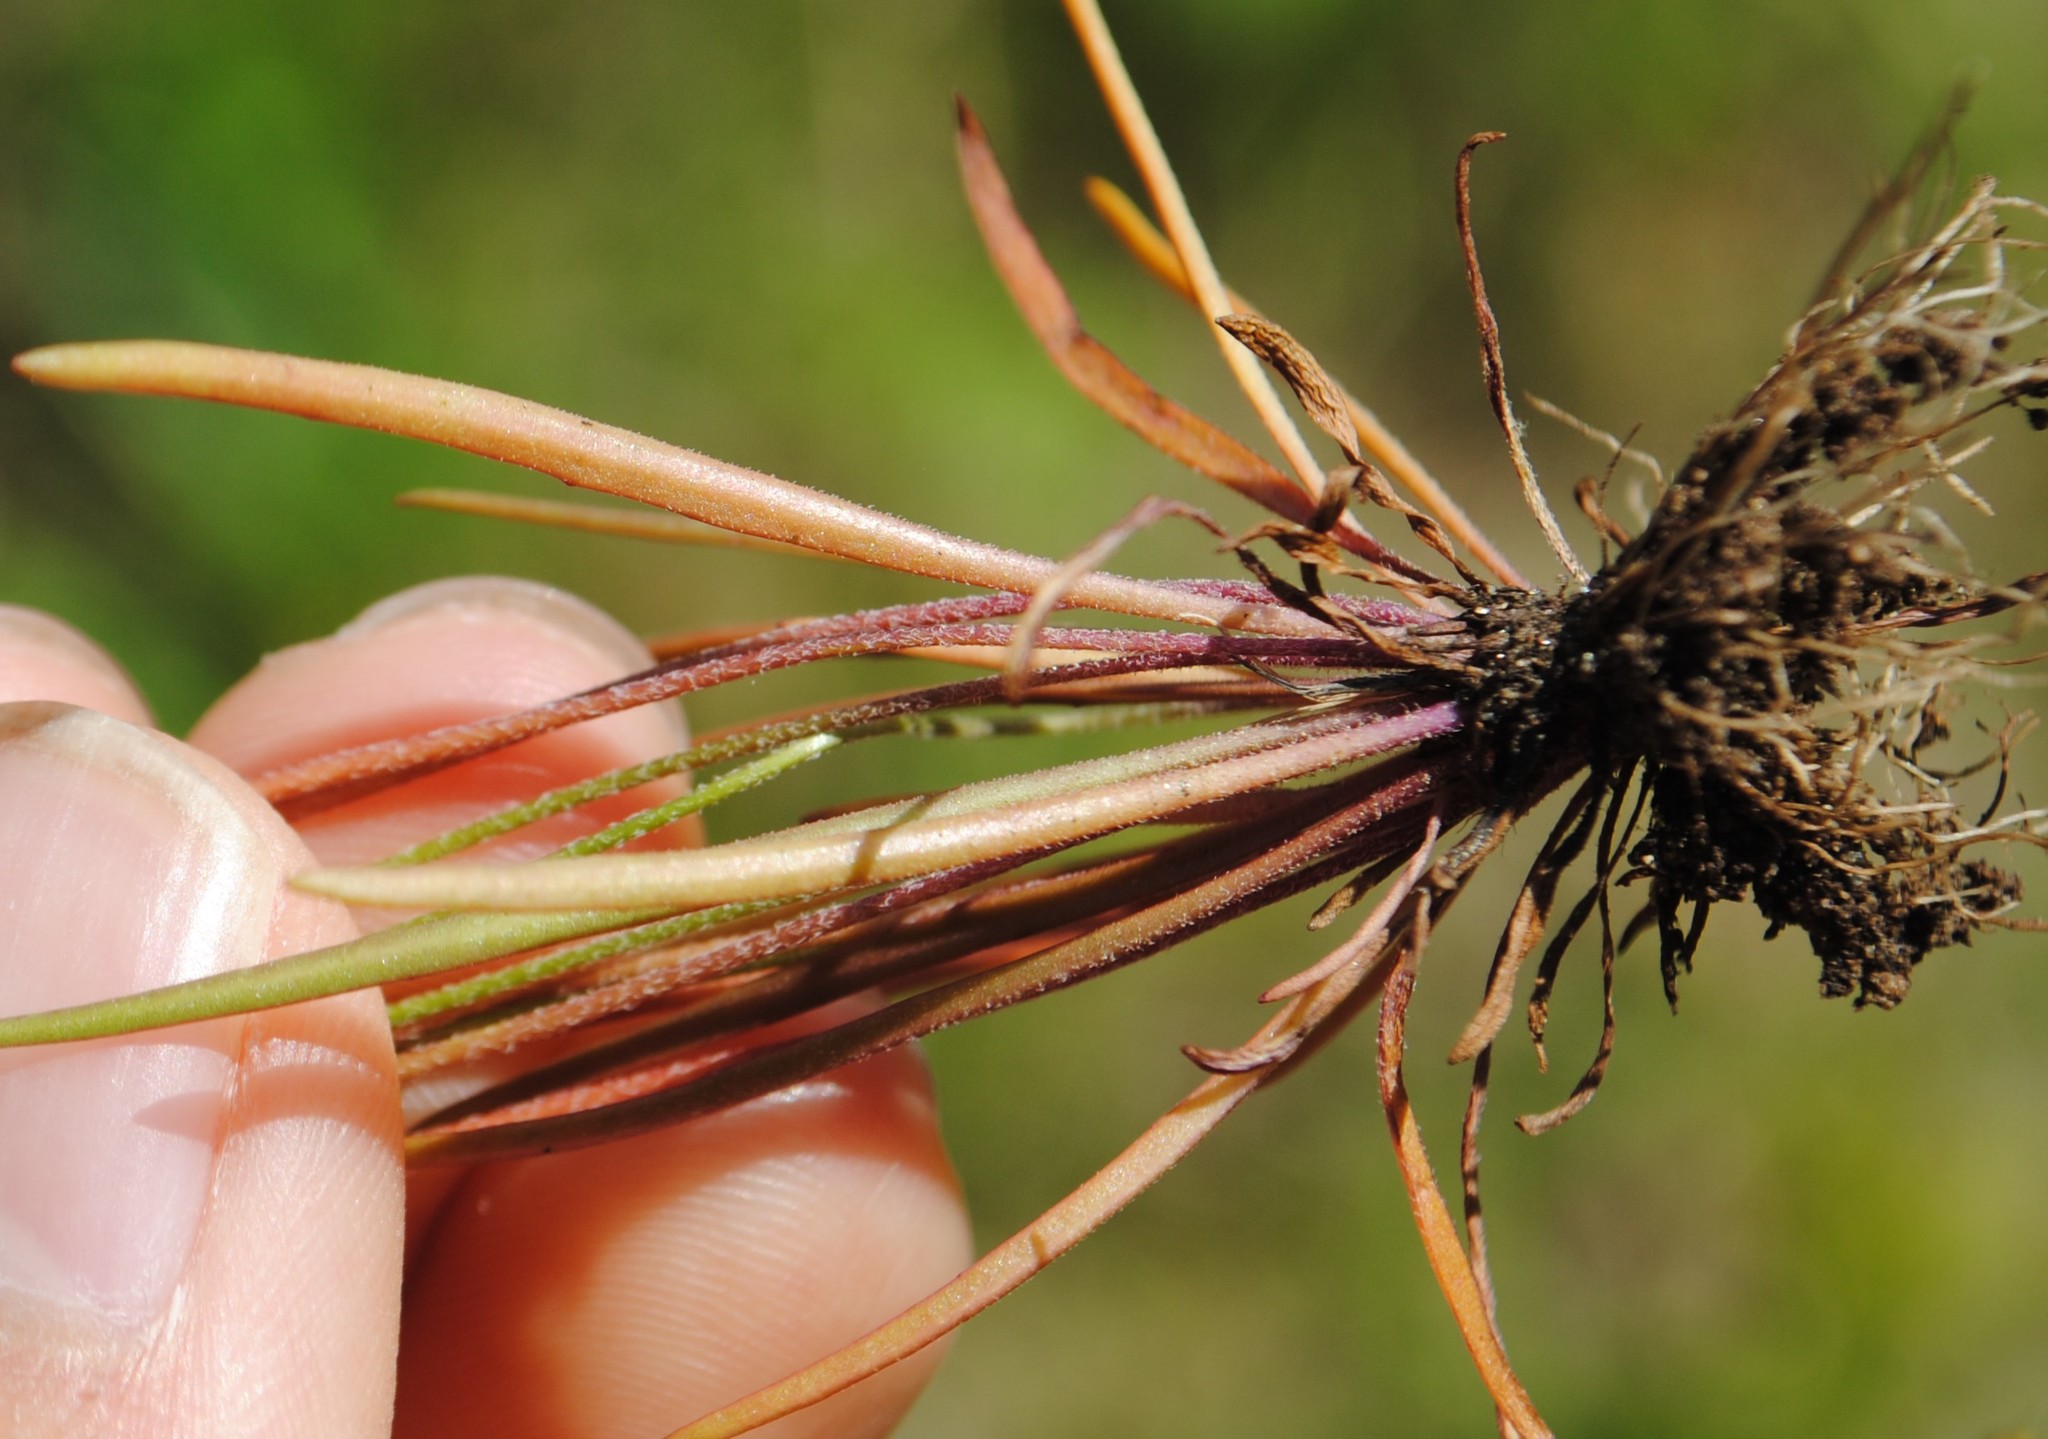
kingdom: Plantae
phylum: Tracheophyta
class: Magnoliopsida
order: Lamiales
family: Plantaginaceae
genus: Plantago
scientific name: Plantago pusilla
